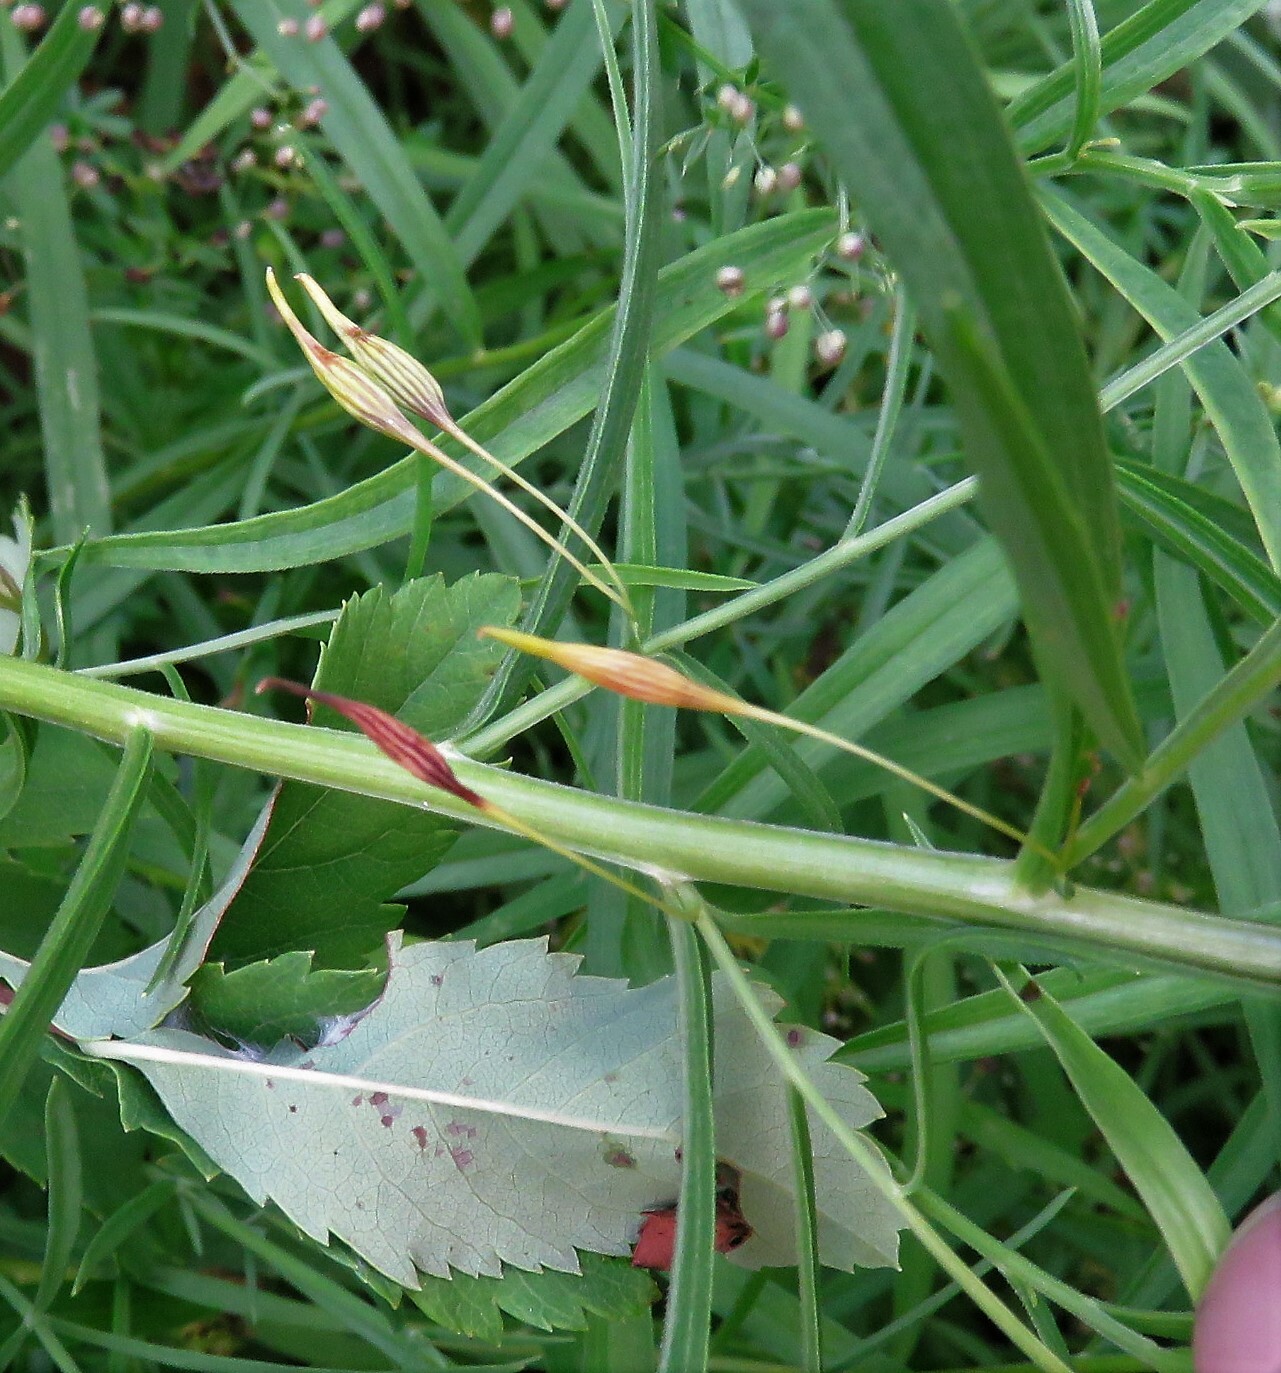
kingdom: Animalia
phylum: Arthropoda
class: Insecta
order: Diptera
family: Cecidomyiidae
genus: Rhopalomyia
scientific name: Rhopalomyia pedicellata
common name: Goldentop pedicellate gall midge
